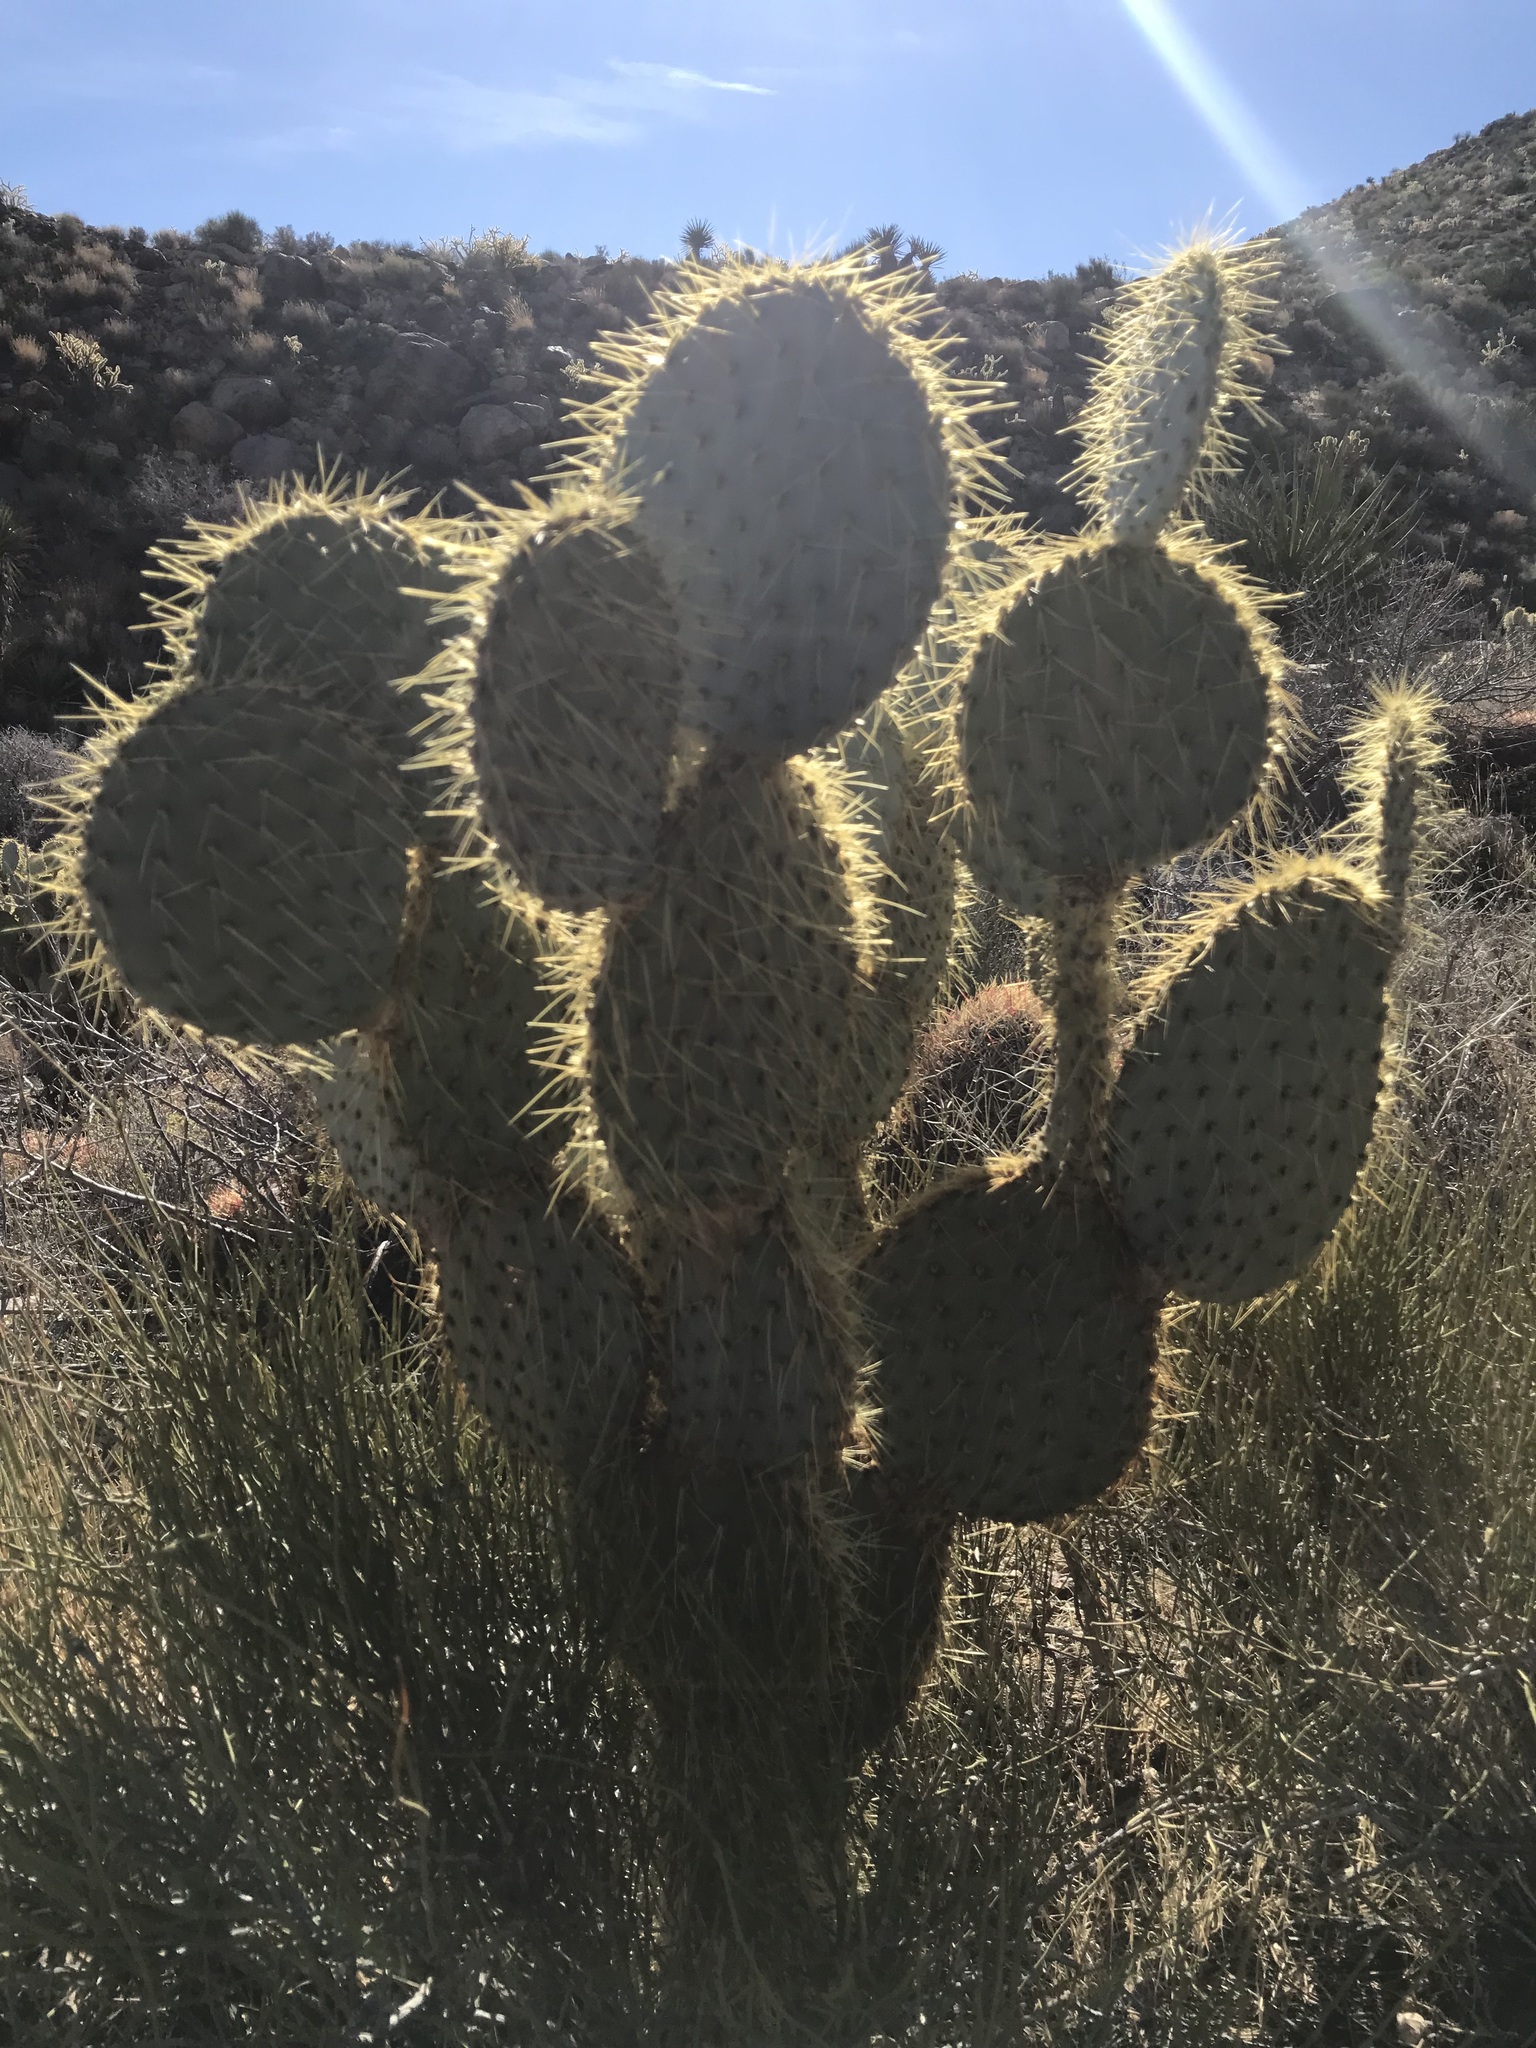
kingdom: Plantae
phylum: Tracheophyta
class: Magnoliopsida
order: Caryophyllales
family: Cactaceae
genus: Opuntia
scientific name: Opuntia chlorotica
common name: Dollar-joint prickly-pear
